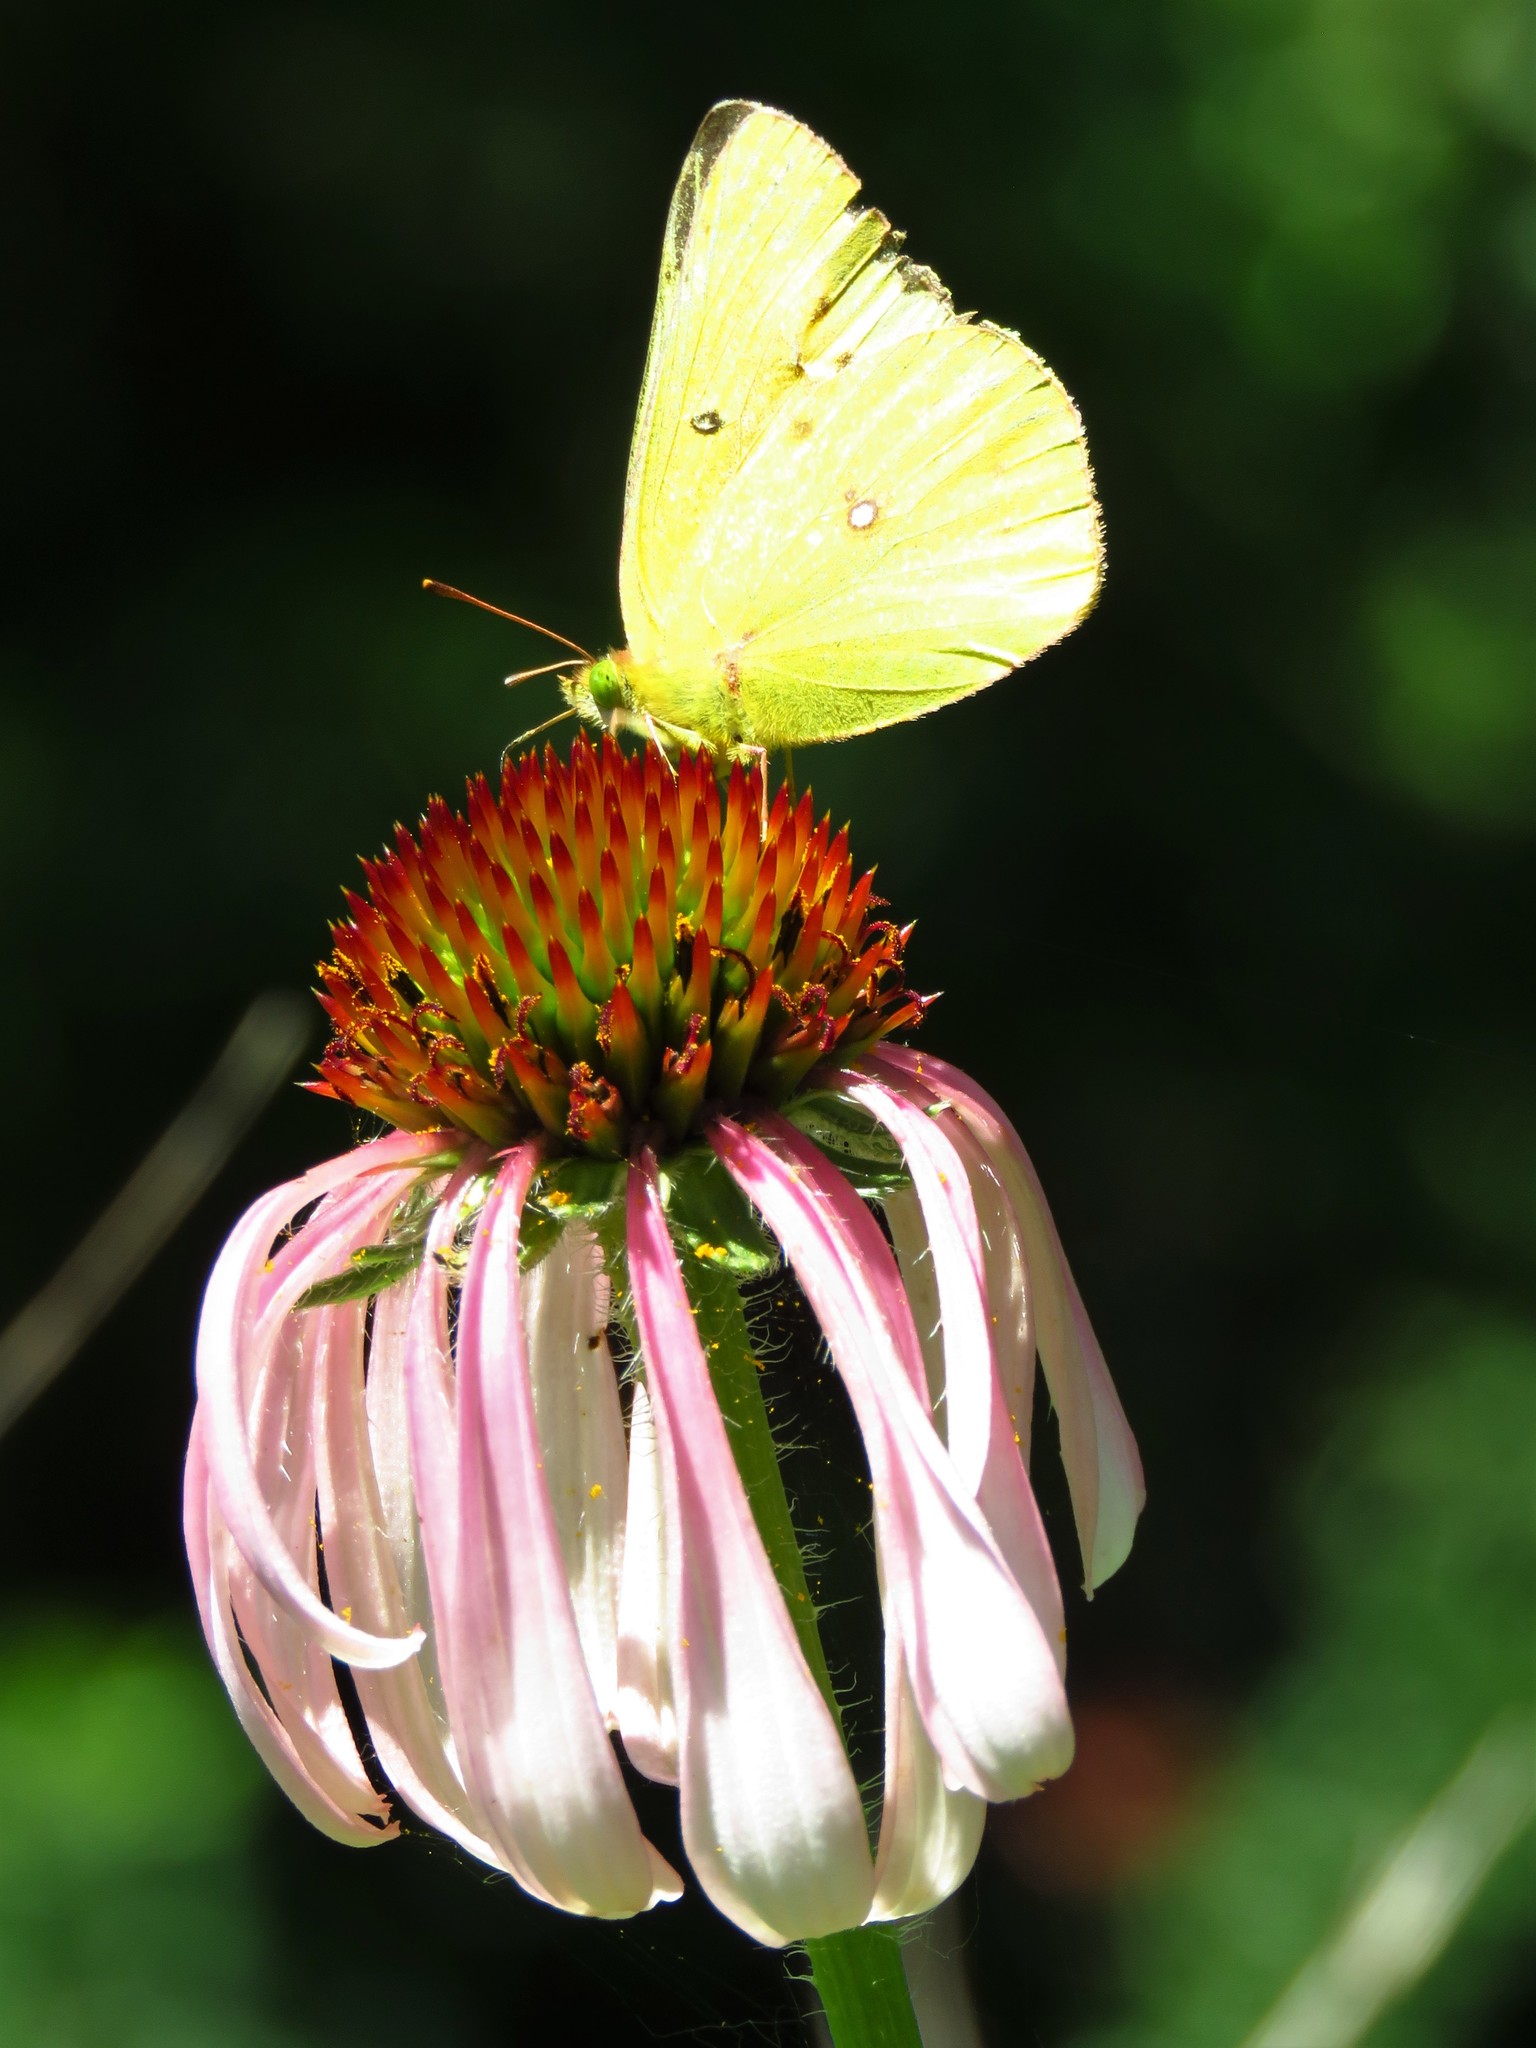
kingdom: Animalia
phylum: Arthropoda
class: Insecta
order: Lepidoptera
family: Pieridae
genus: Colias
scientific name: Colias eurytheme
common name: Alfalfa butterfly
